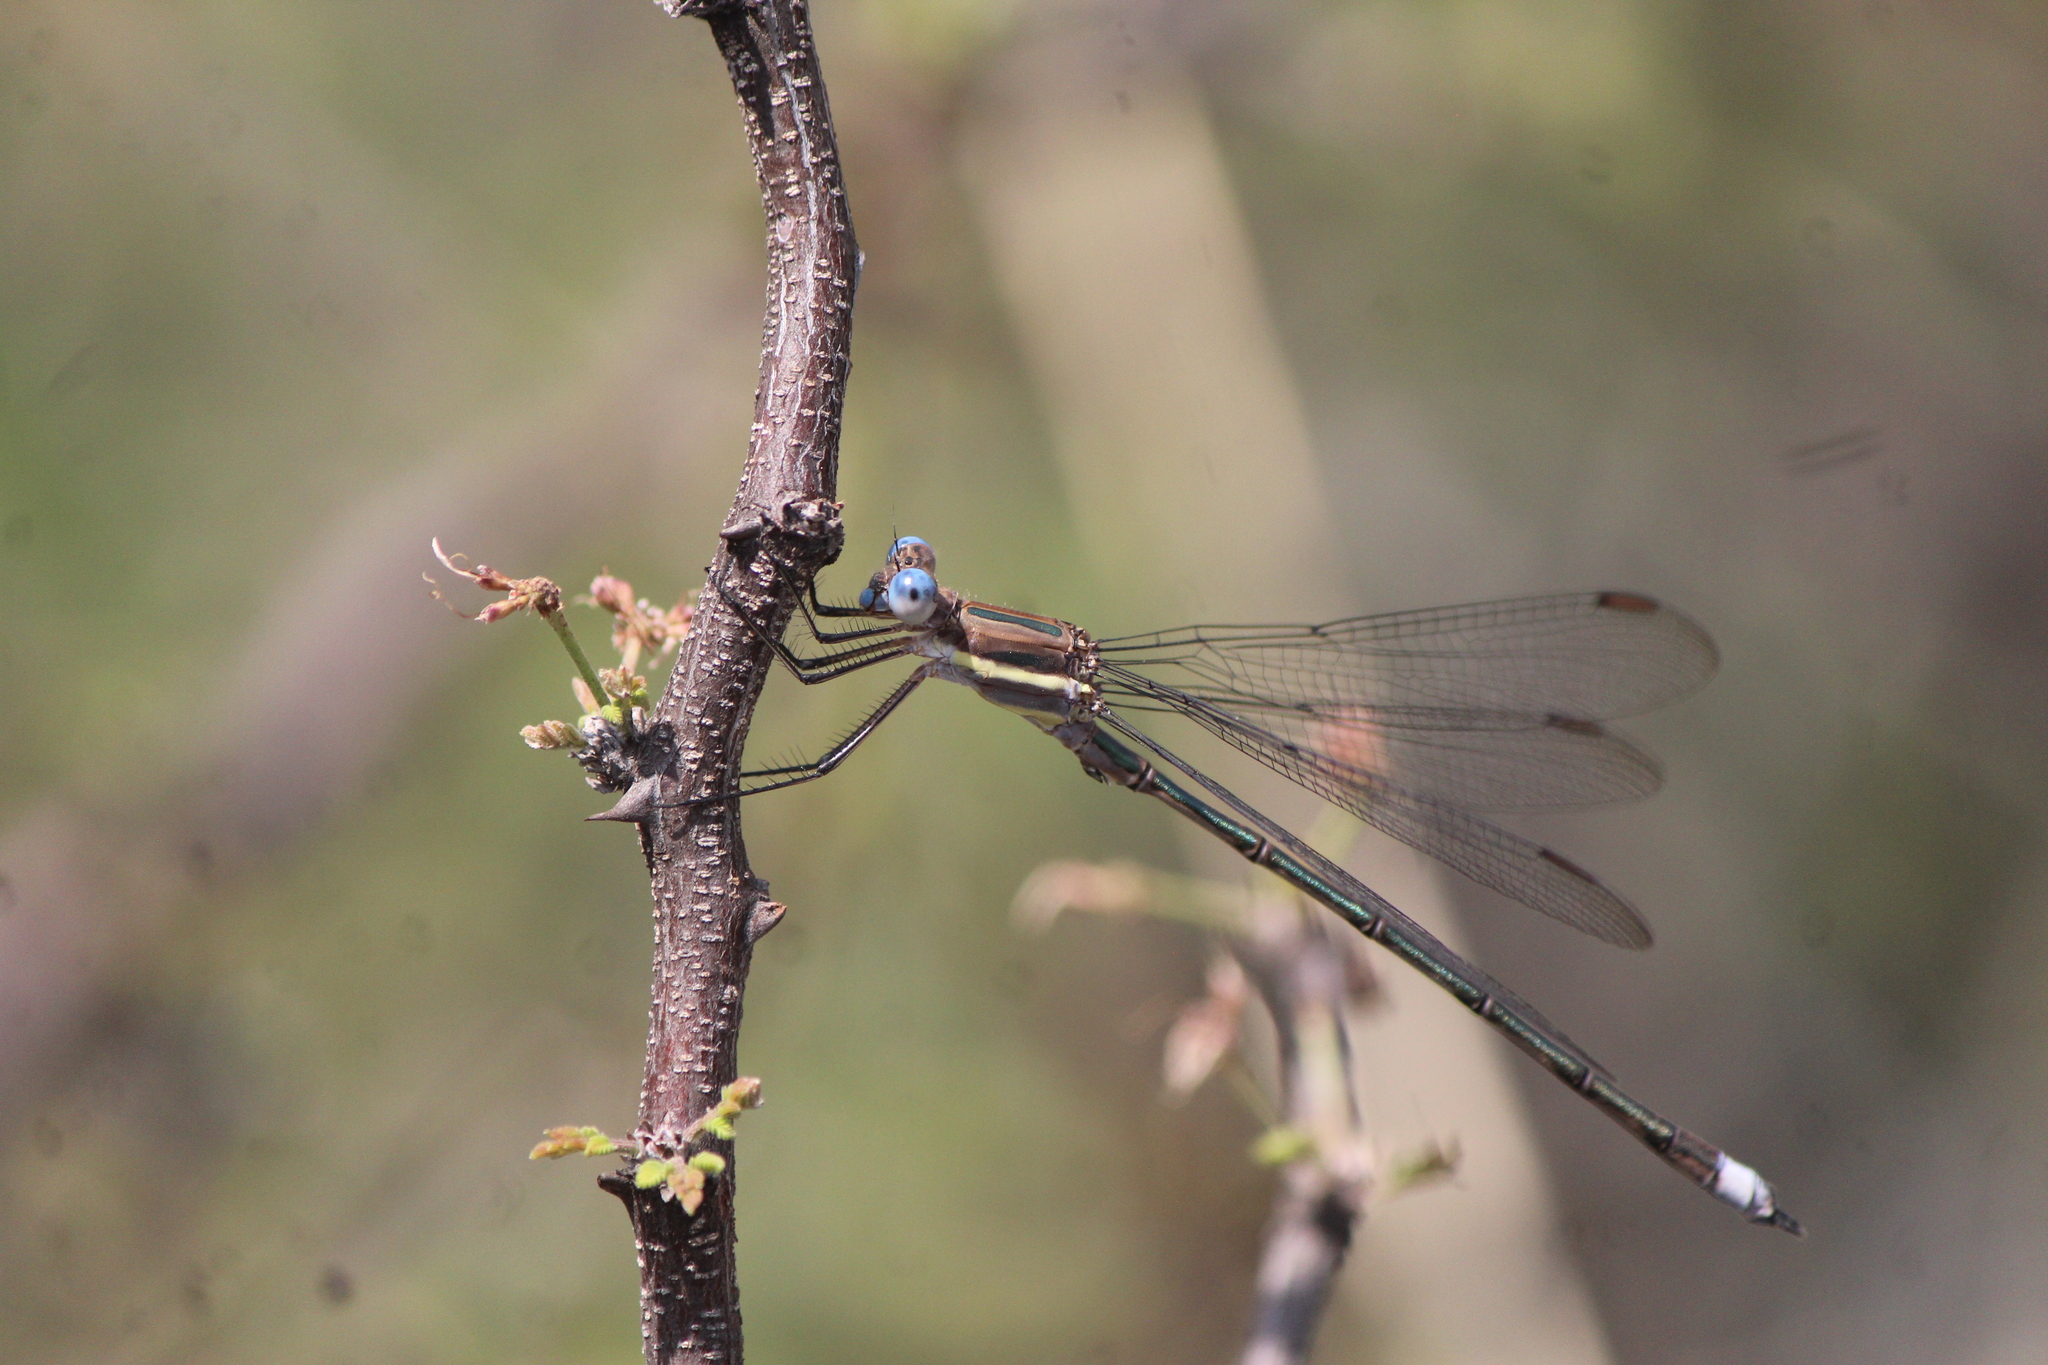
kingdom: Animalia
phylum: Arthropoda
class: Insecta
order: Odonata
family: Lestidae
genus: Archilestes
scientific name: Archilestes grandis
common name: Great spreadwing
